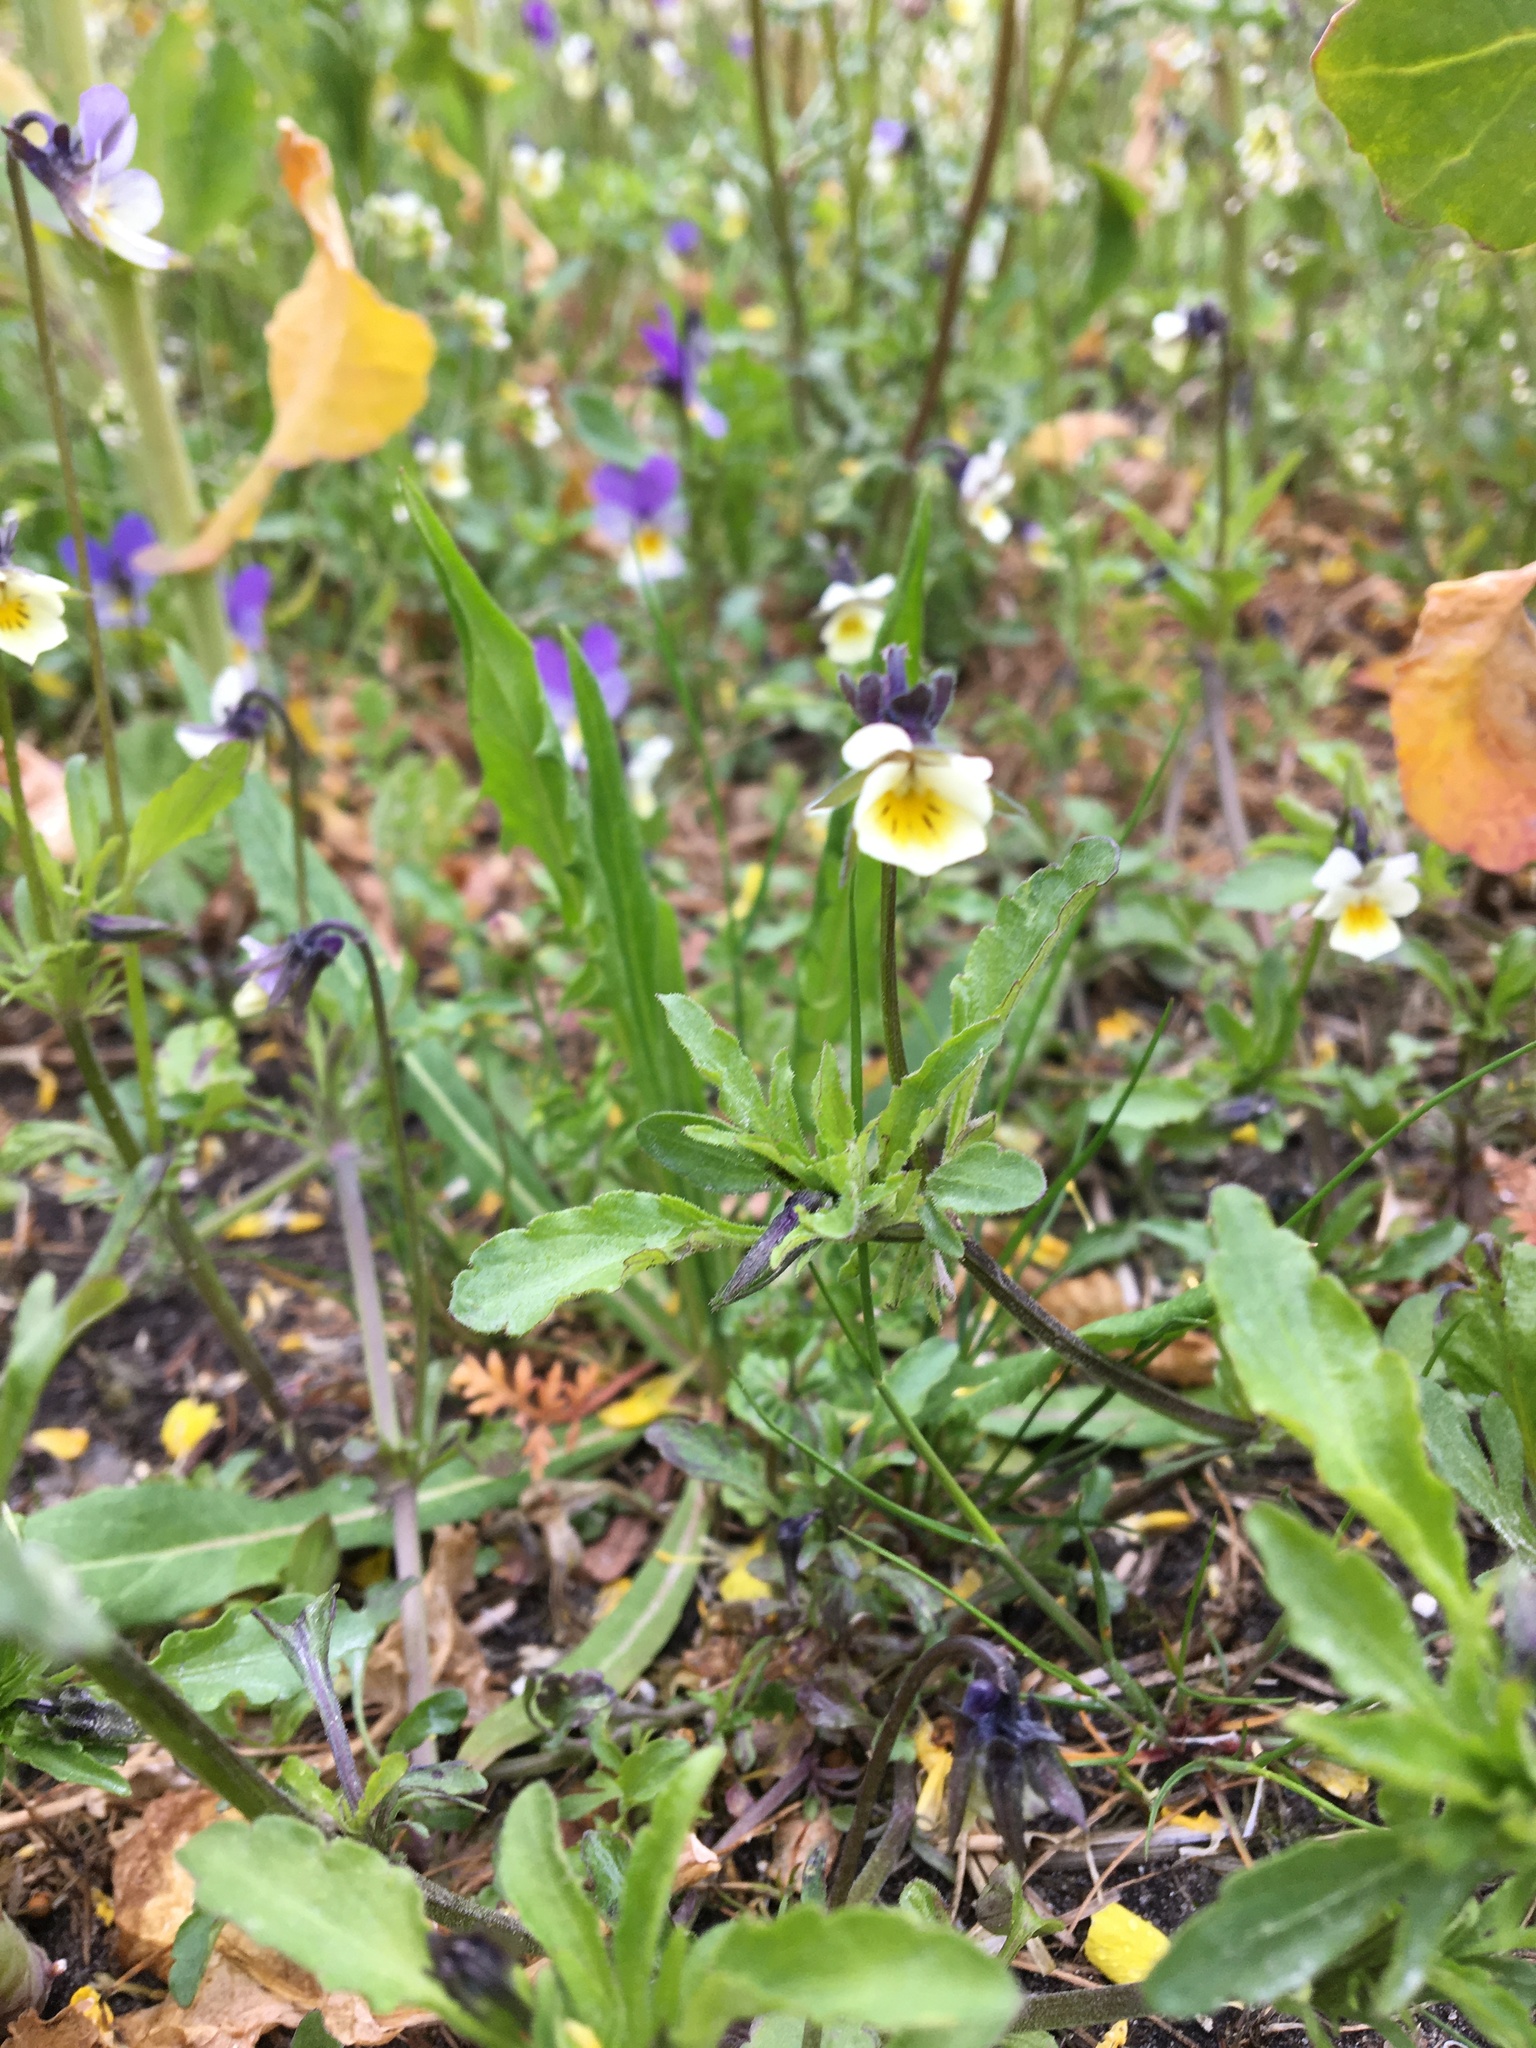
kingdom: Plantae
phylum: Tracheophyta
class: Magnoliopsida
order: Malpighiales
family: Violaceae
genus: Viola
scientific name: Viola arvensis
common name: Field pansy
